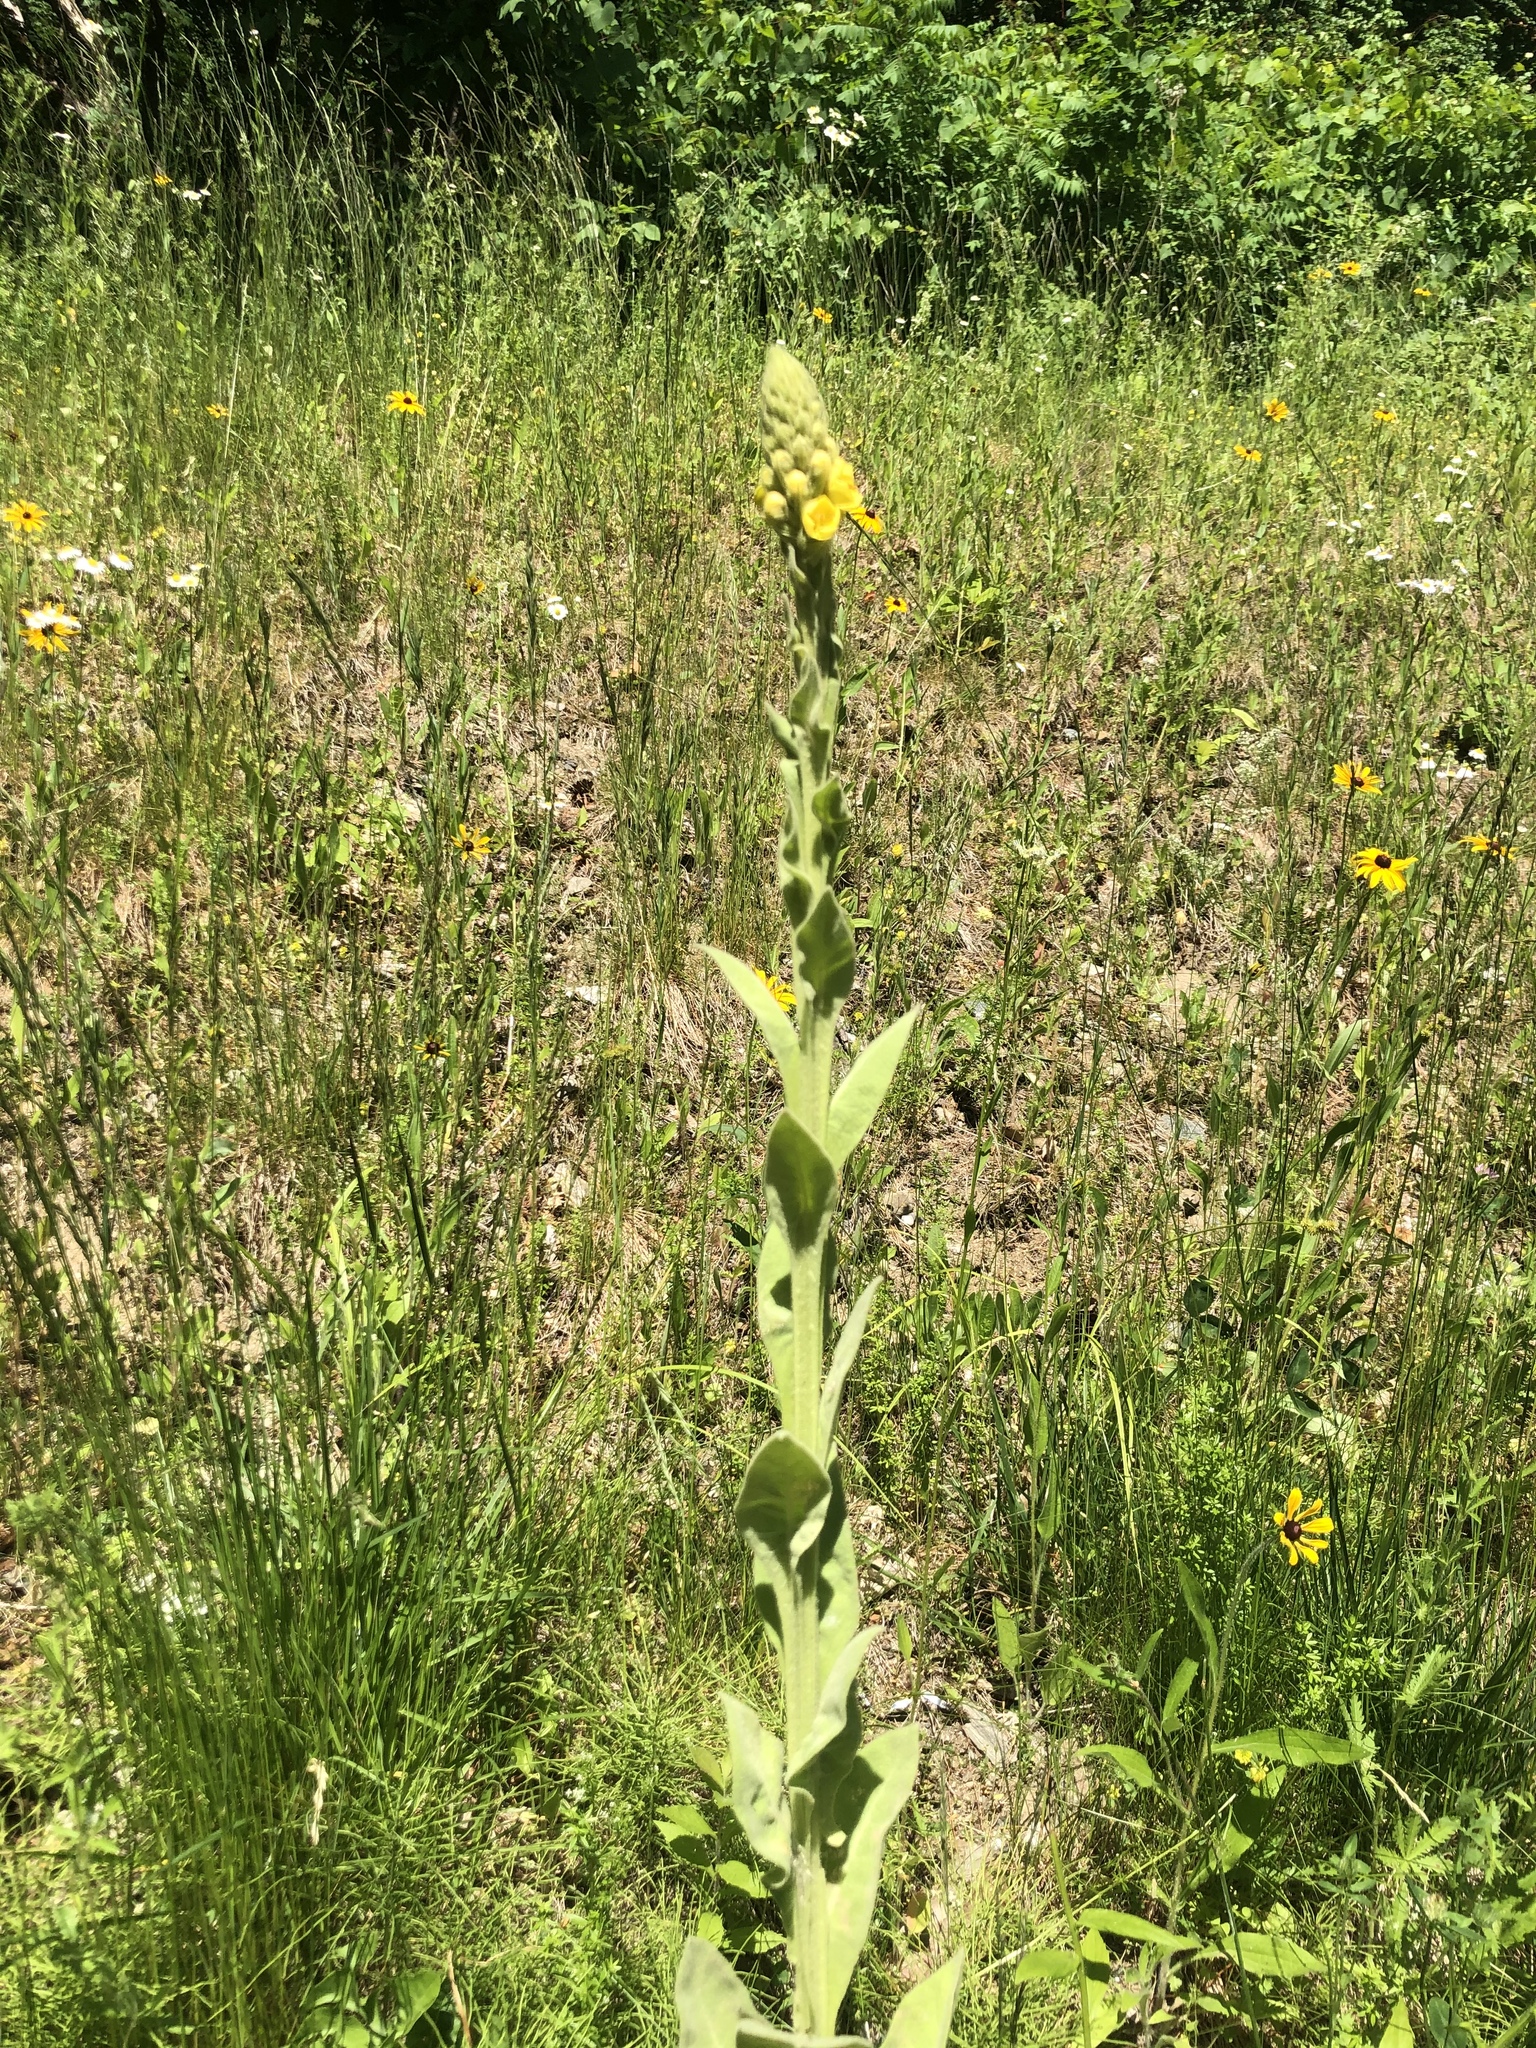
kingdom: Plantae
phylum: Tracheophyta
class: Magnoliopsida
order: Lamiales
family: Scrophulariaceae
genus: Verbascum
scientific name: Verbascum thapsus
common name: Common mullein
